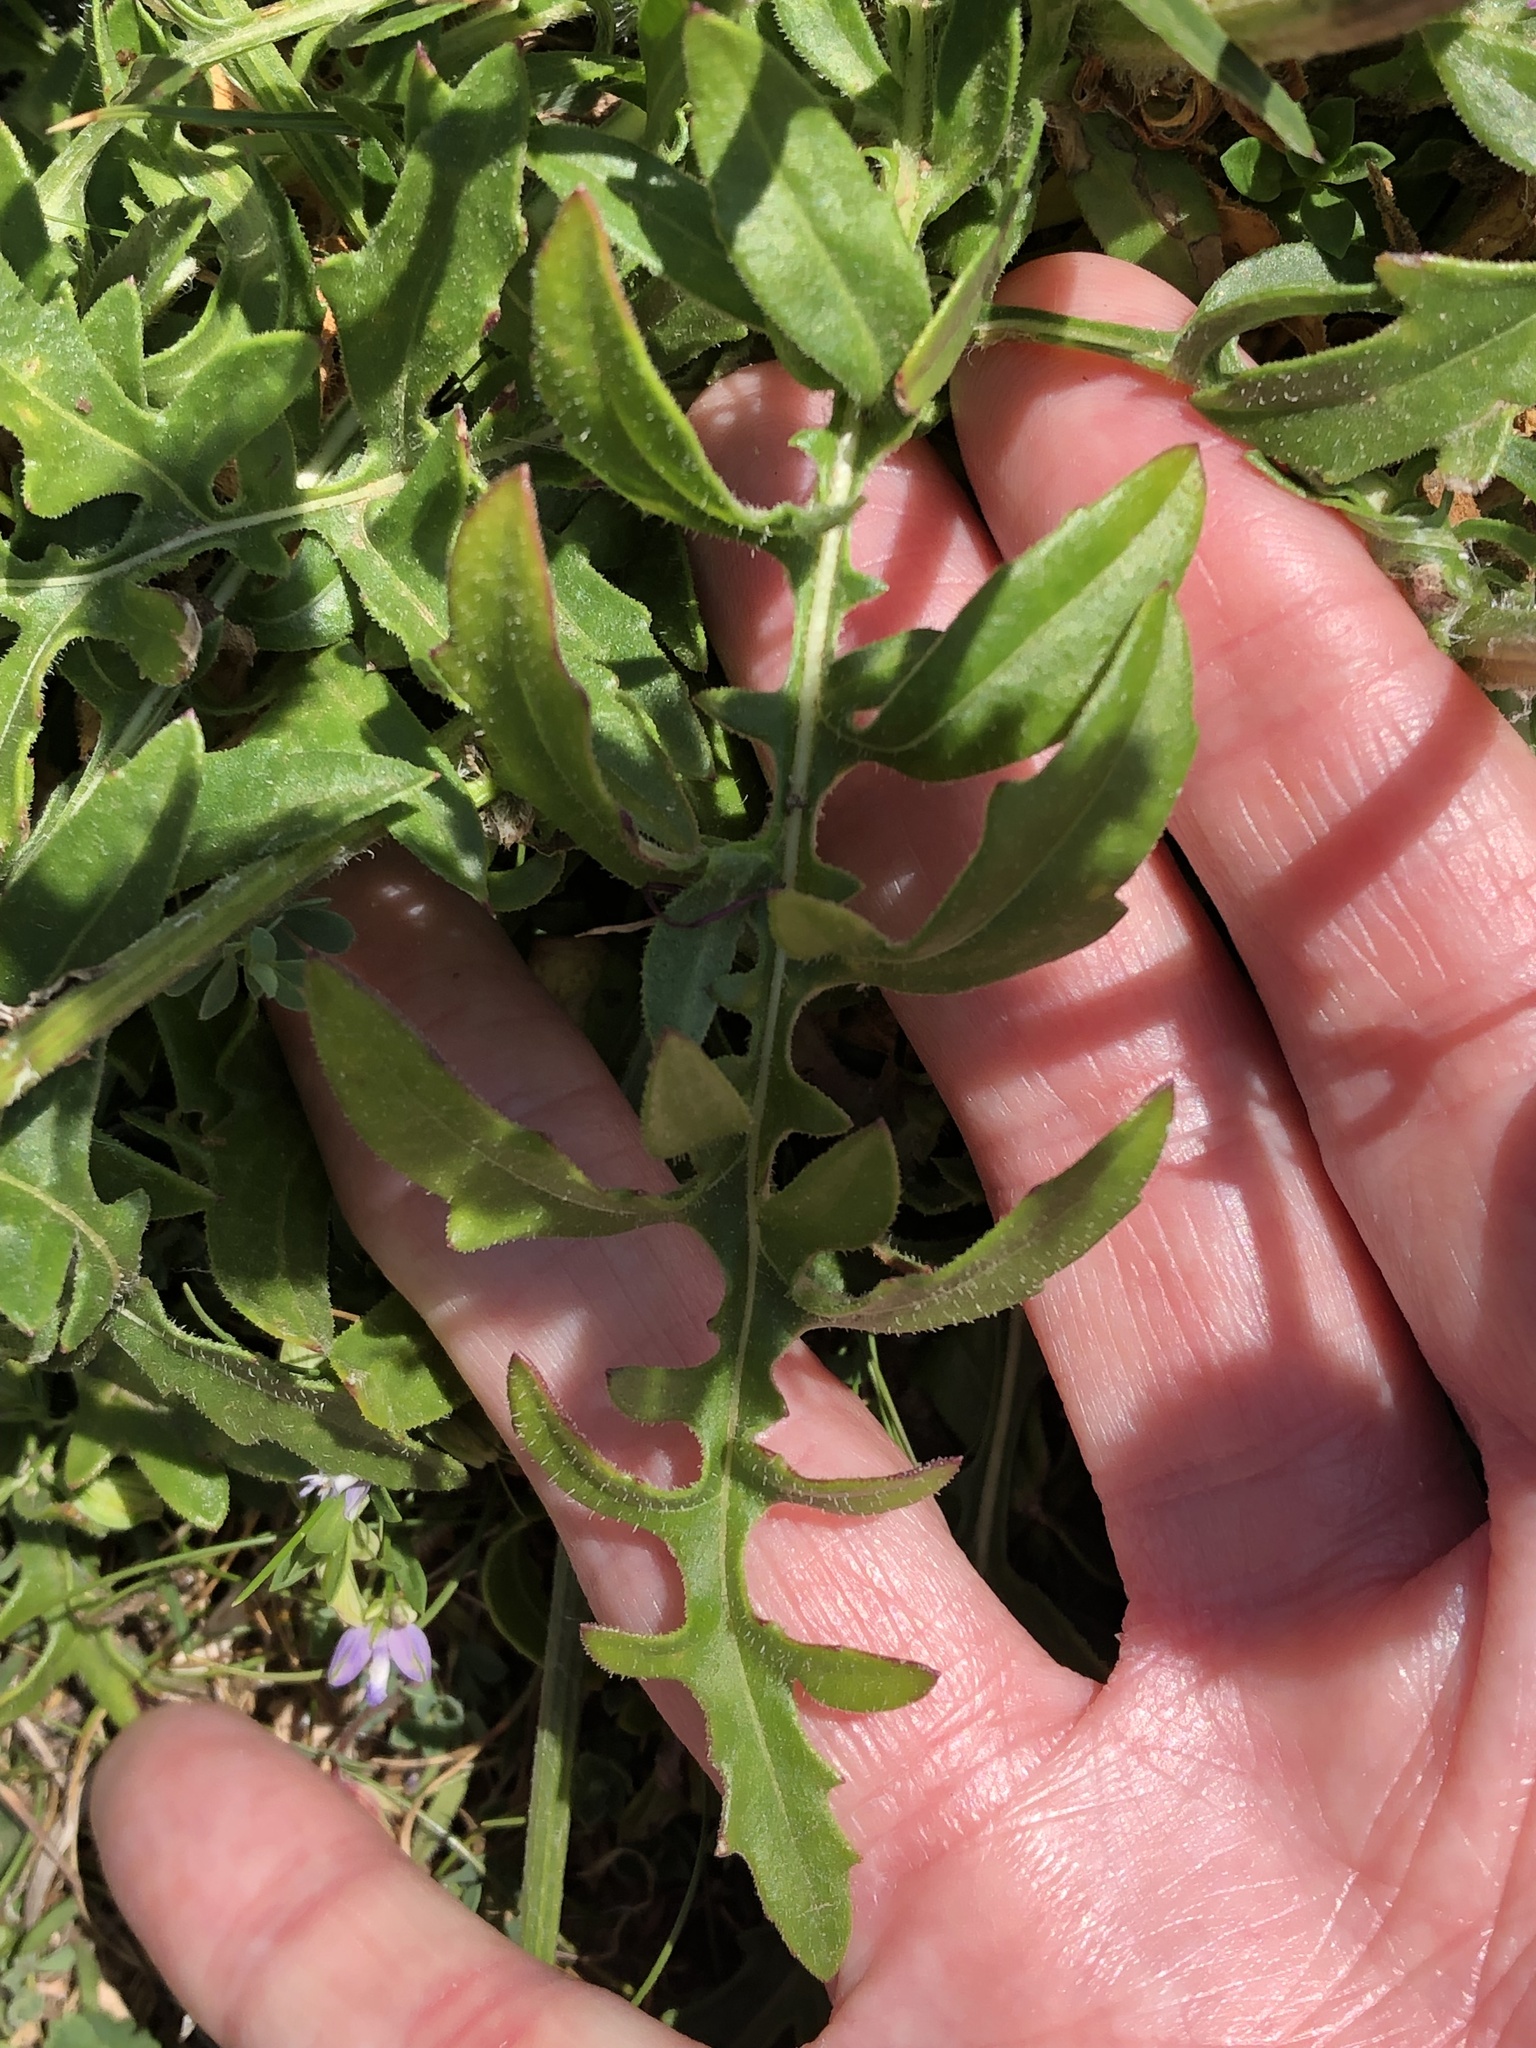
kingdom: Plantae
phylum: Tracheophyta
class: Magnoliopsida
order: Asterales
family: Asteraceae
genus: Centaurea
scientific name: Centaurea scabiosa
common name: Greater knapweed
